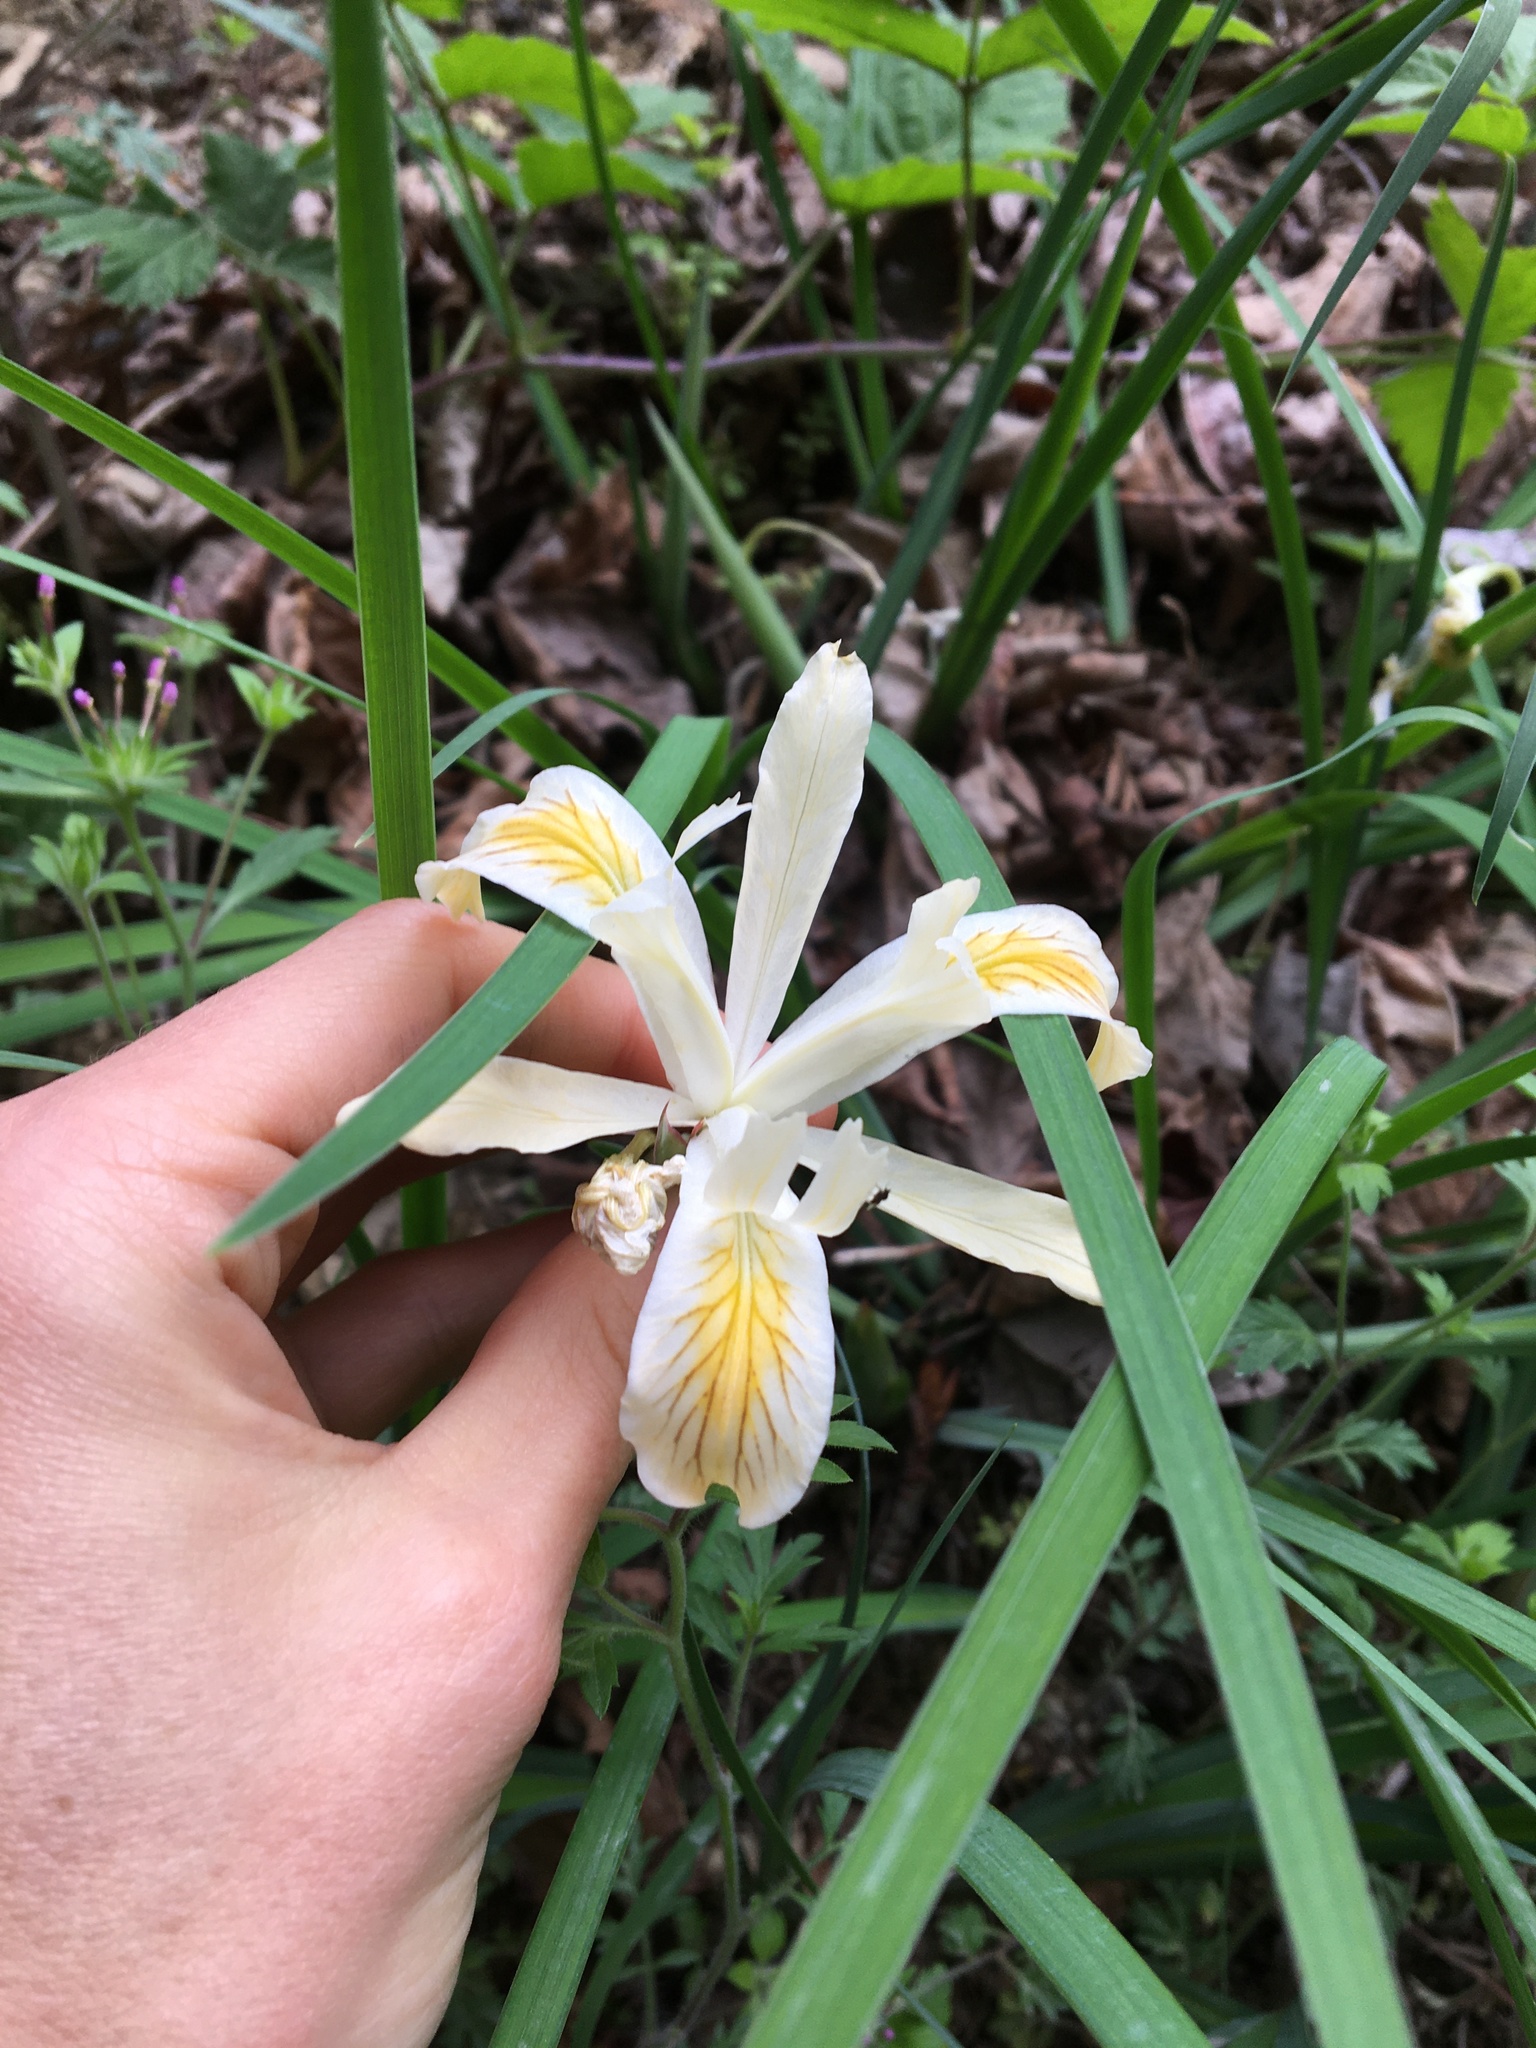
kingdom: Plantae
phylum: Tracheophyta
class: Liliopsida
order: Asparagales
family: Iridaceae
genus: Iris
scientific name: Iris chrysophylla
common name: Yellow-leaf iris
